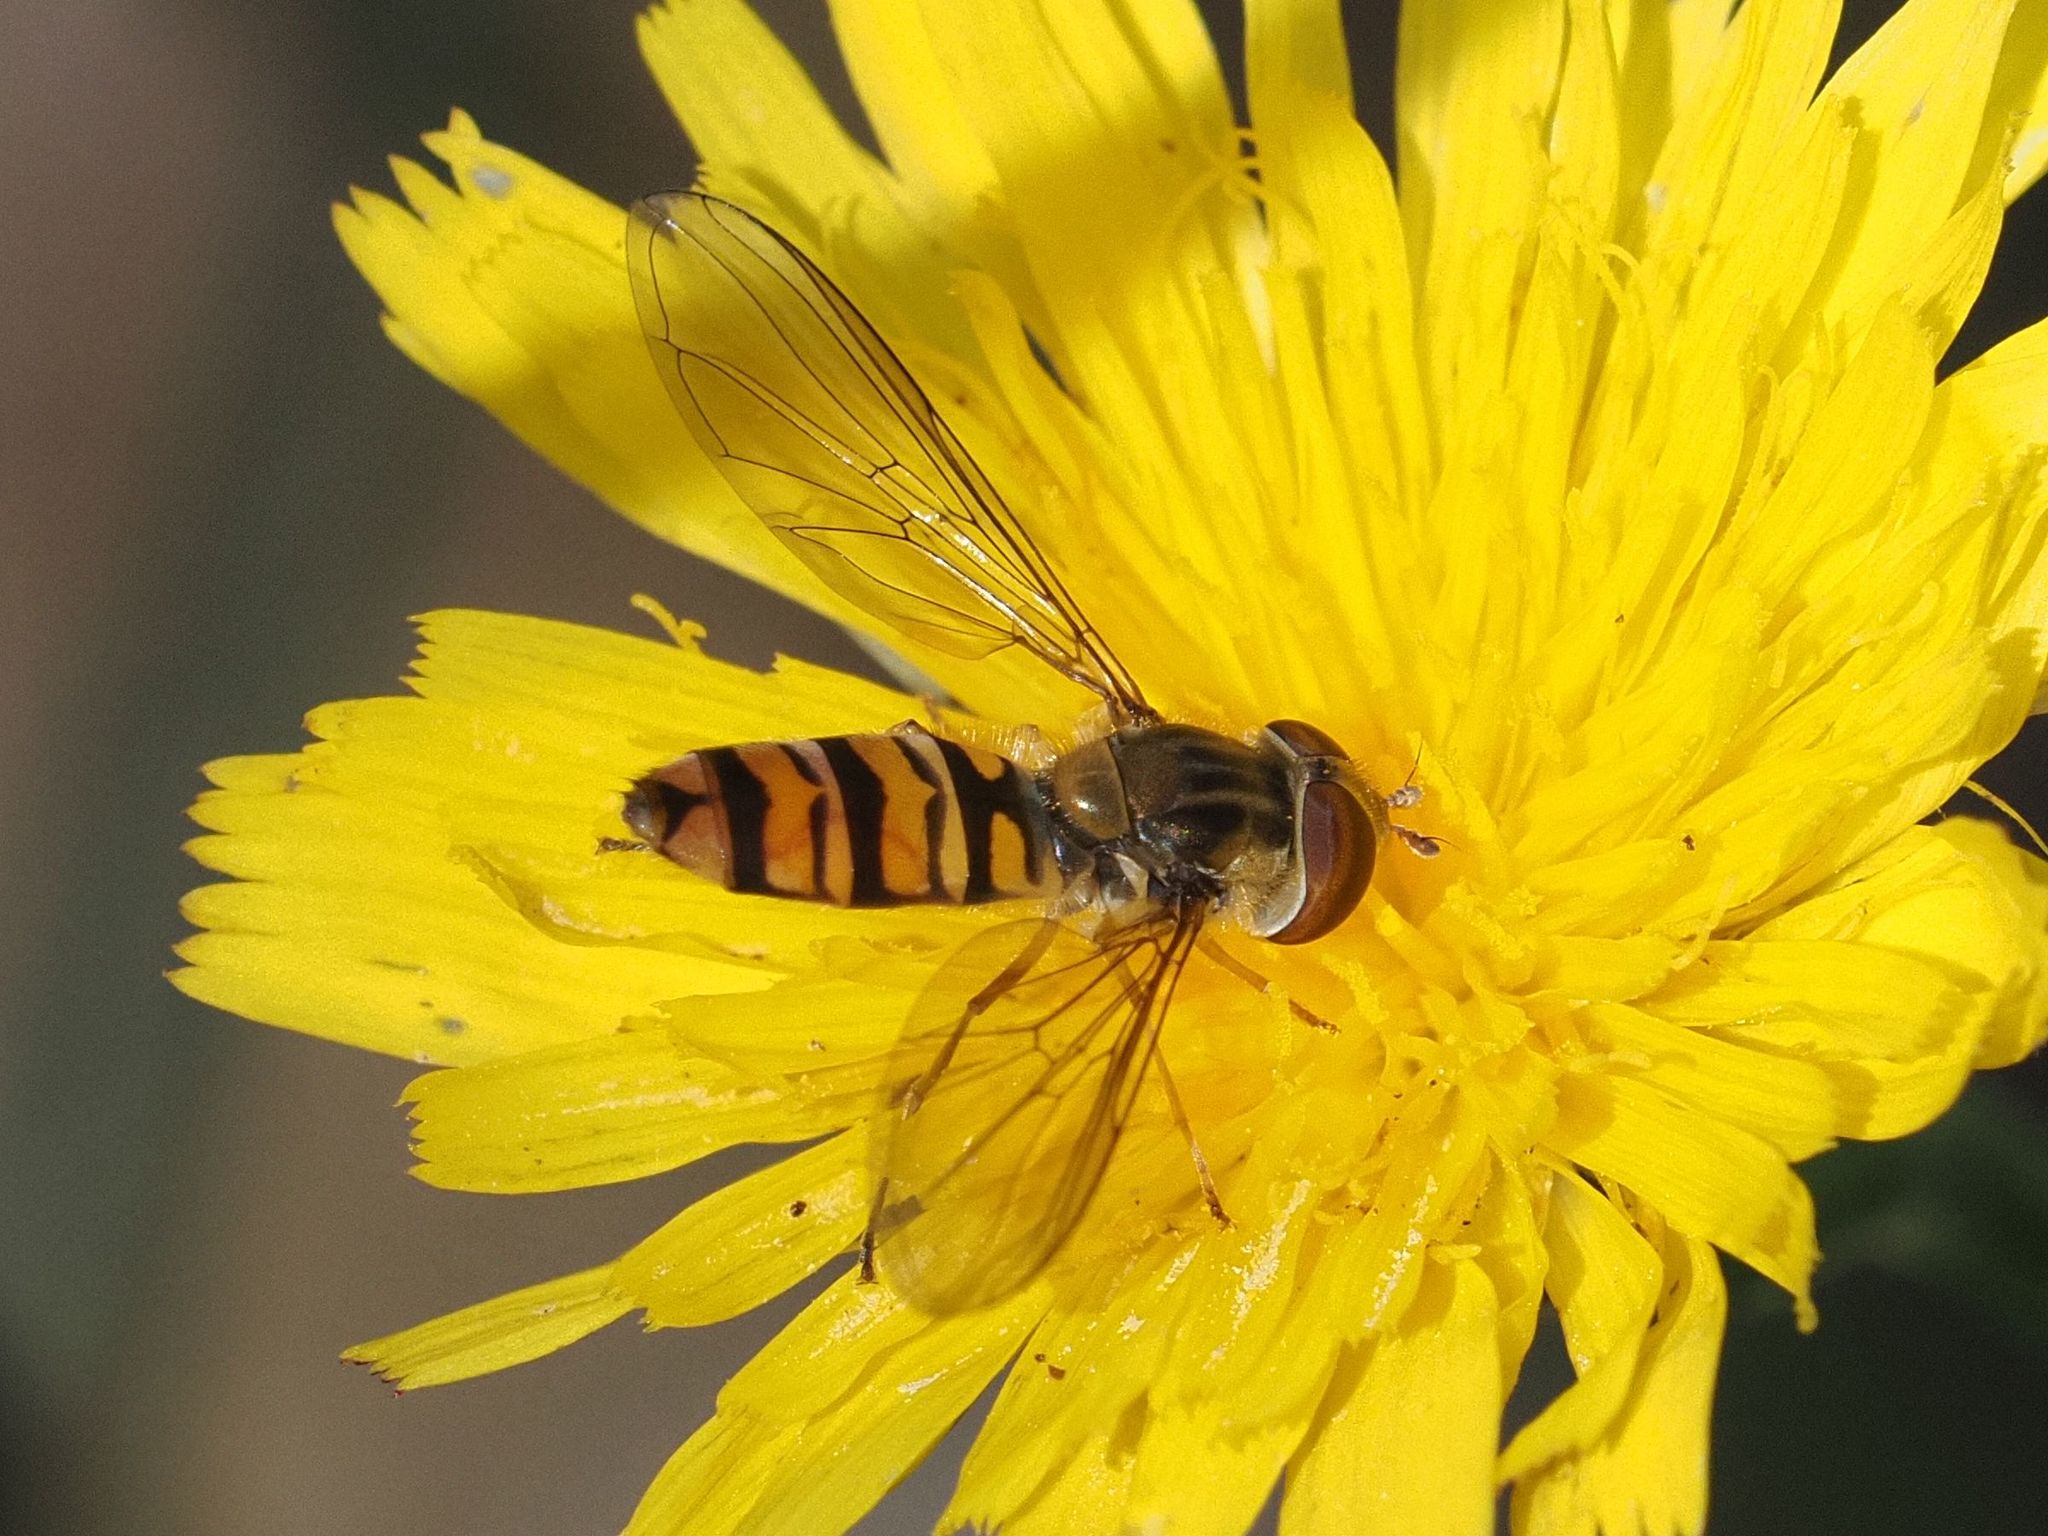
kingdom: Animalia
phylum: Arthropoda
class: Insecta
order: Diptera
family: Syrphidae
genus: Episyrphus
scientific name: Episyrphus balteatus
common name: Marmalade hoverfly
